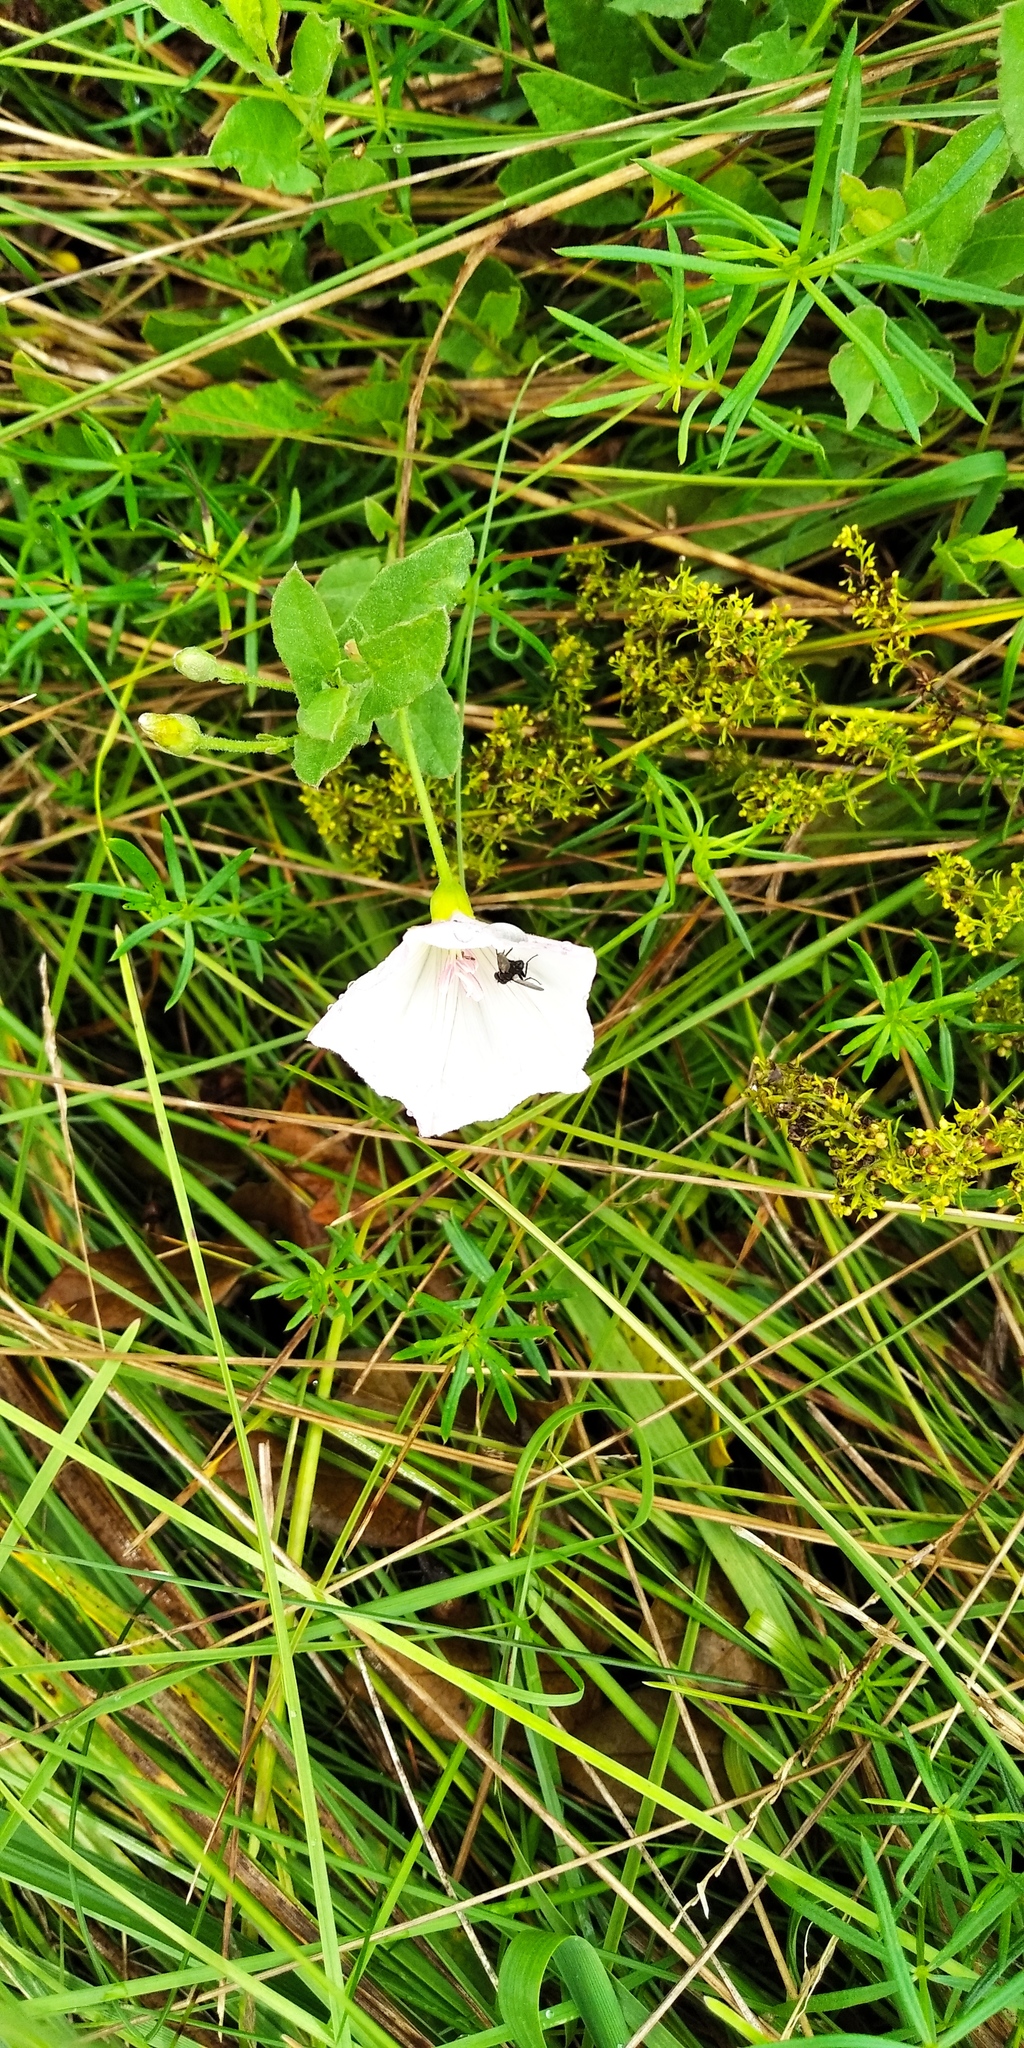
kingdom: Plantae
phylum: Tracheophyta
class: Magnoliopsida
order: Solanales
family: Convolvulaceae
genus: Convolvulus
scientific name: Convolvulus arvensis
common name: Field bindweed
